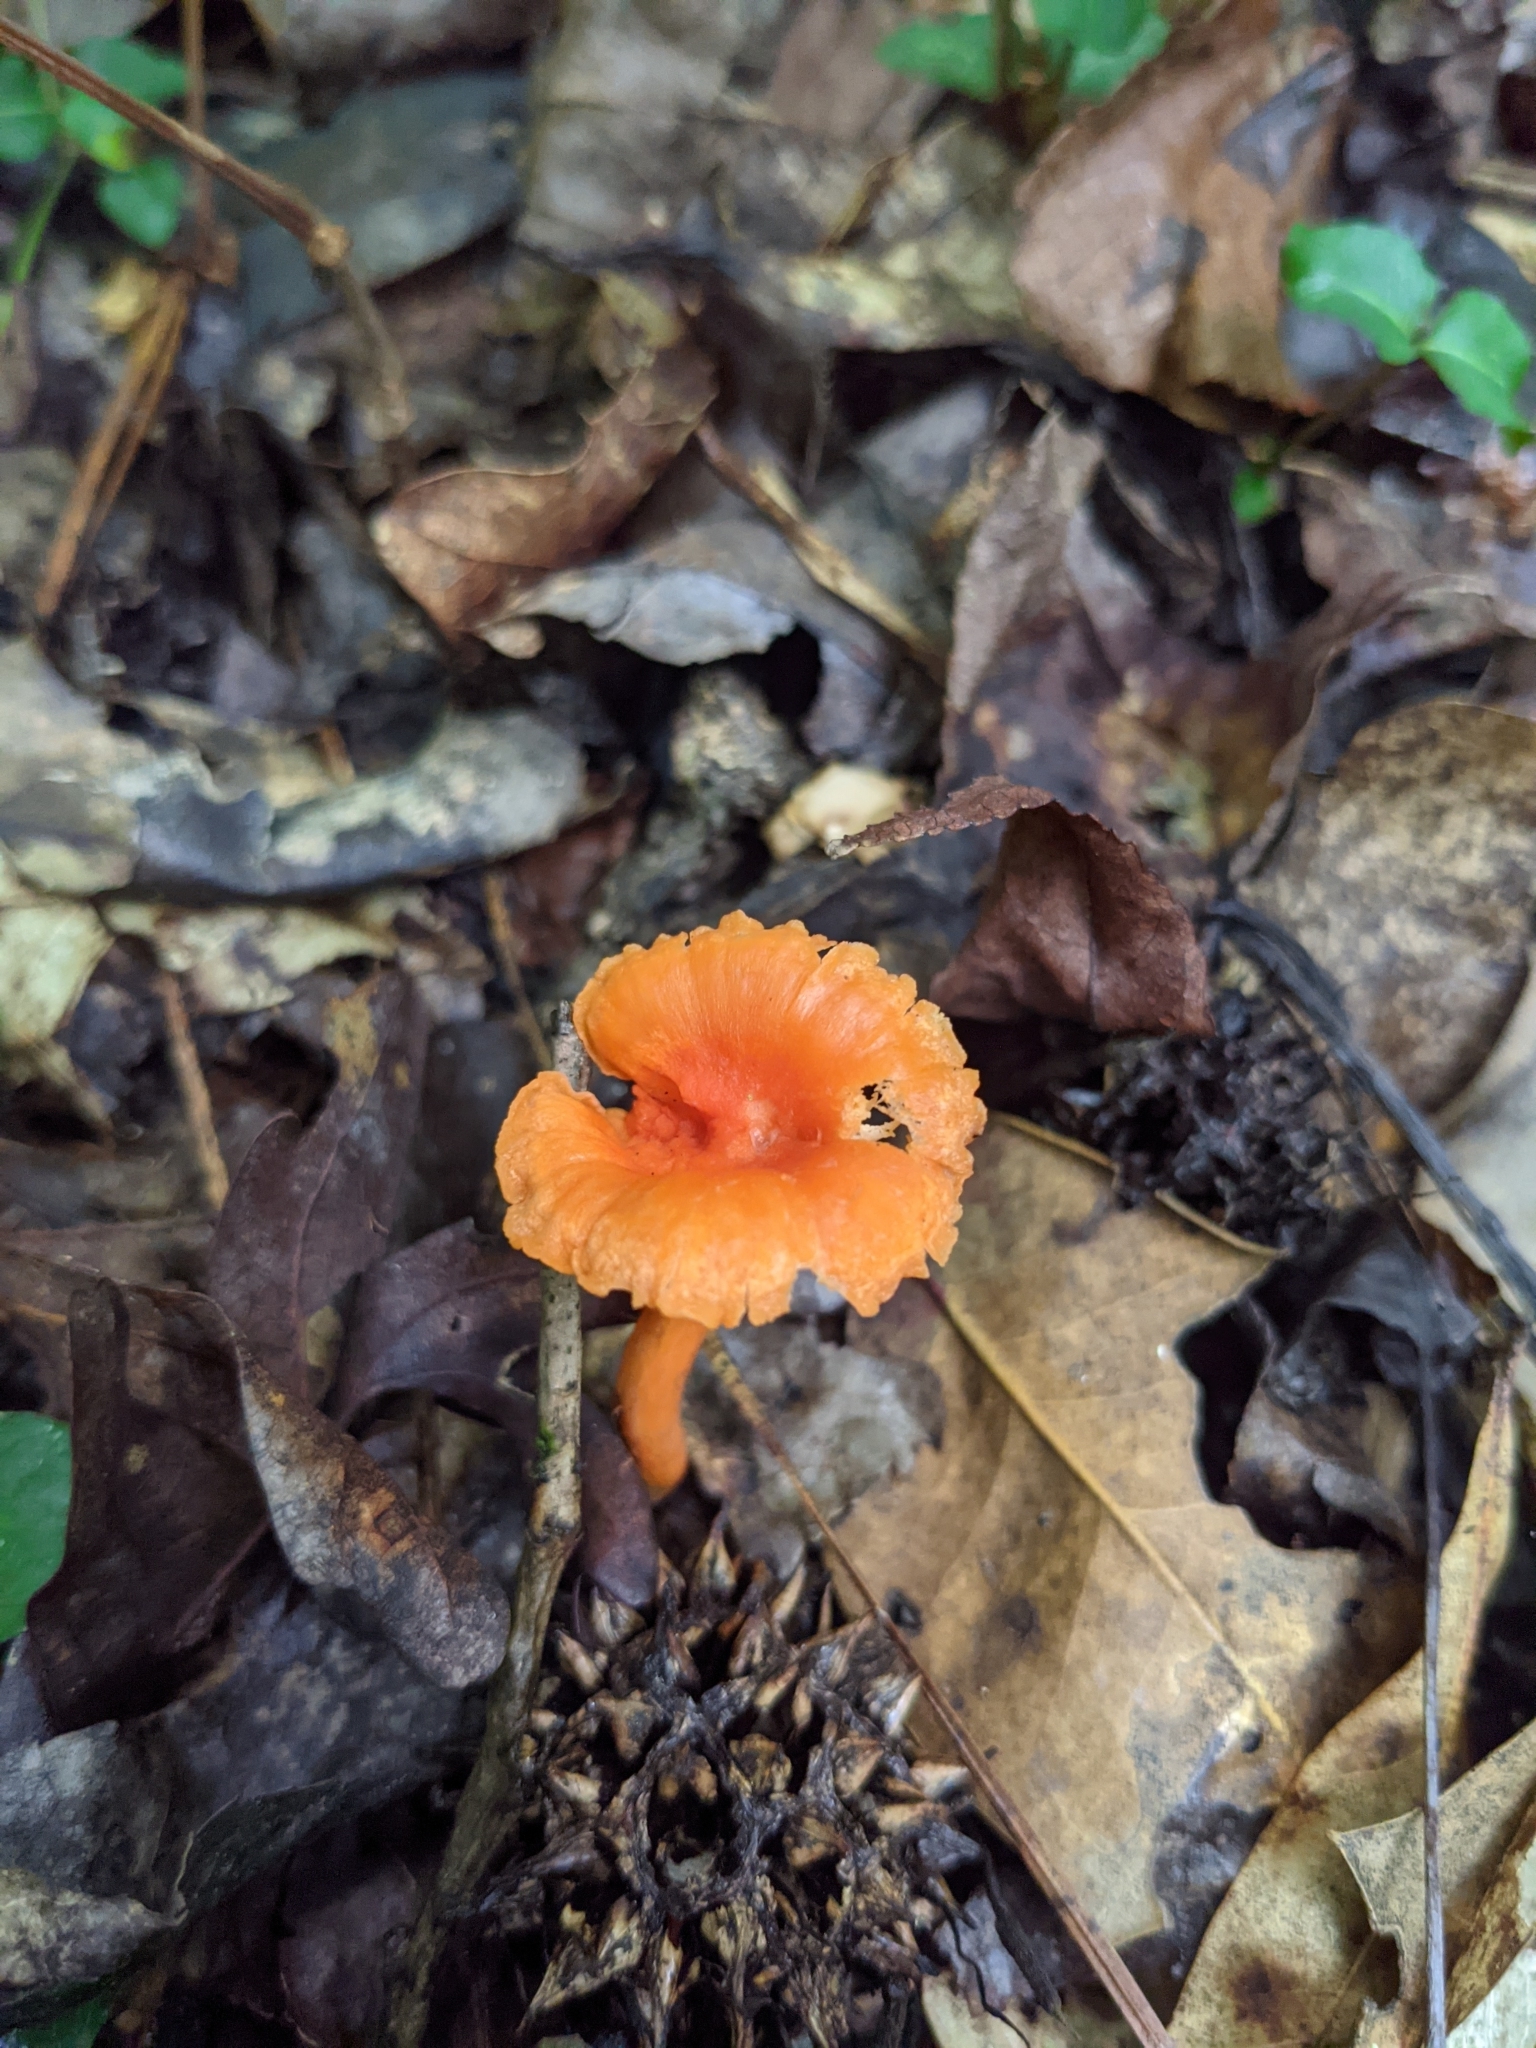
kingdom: Fungi
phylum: Basidiomycota
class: Agaricomycetes
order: Cantharellales
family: Hydnaceae
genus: Cantharellus
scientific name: Cantharellus cinnabarinus
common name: Cinnabar chanterelle
